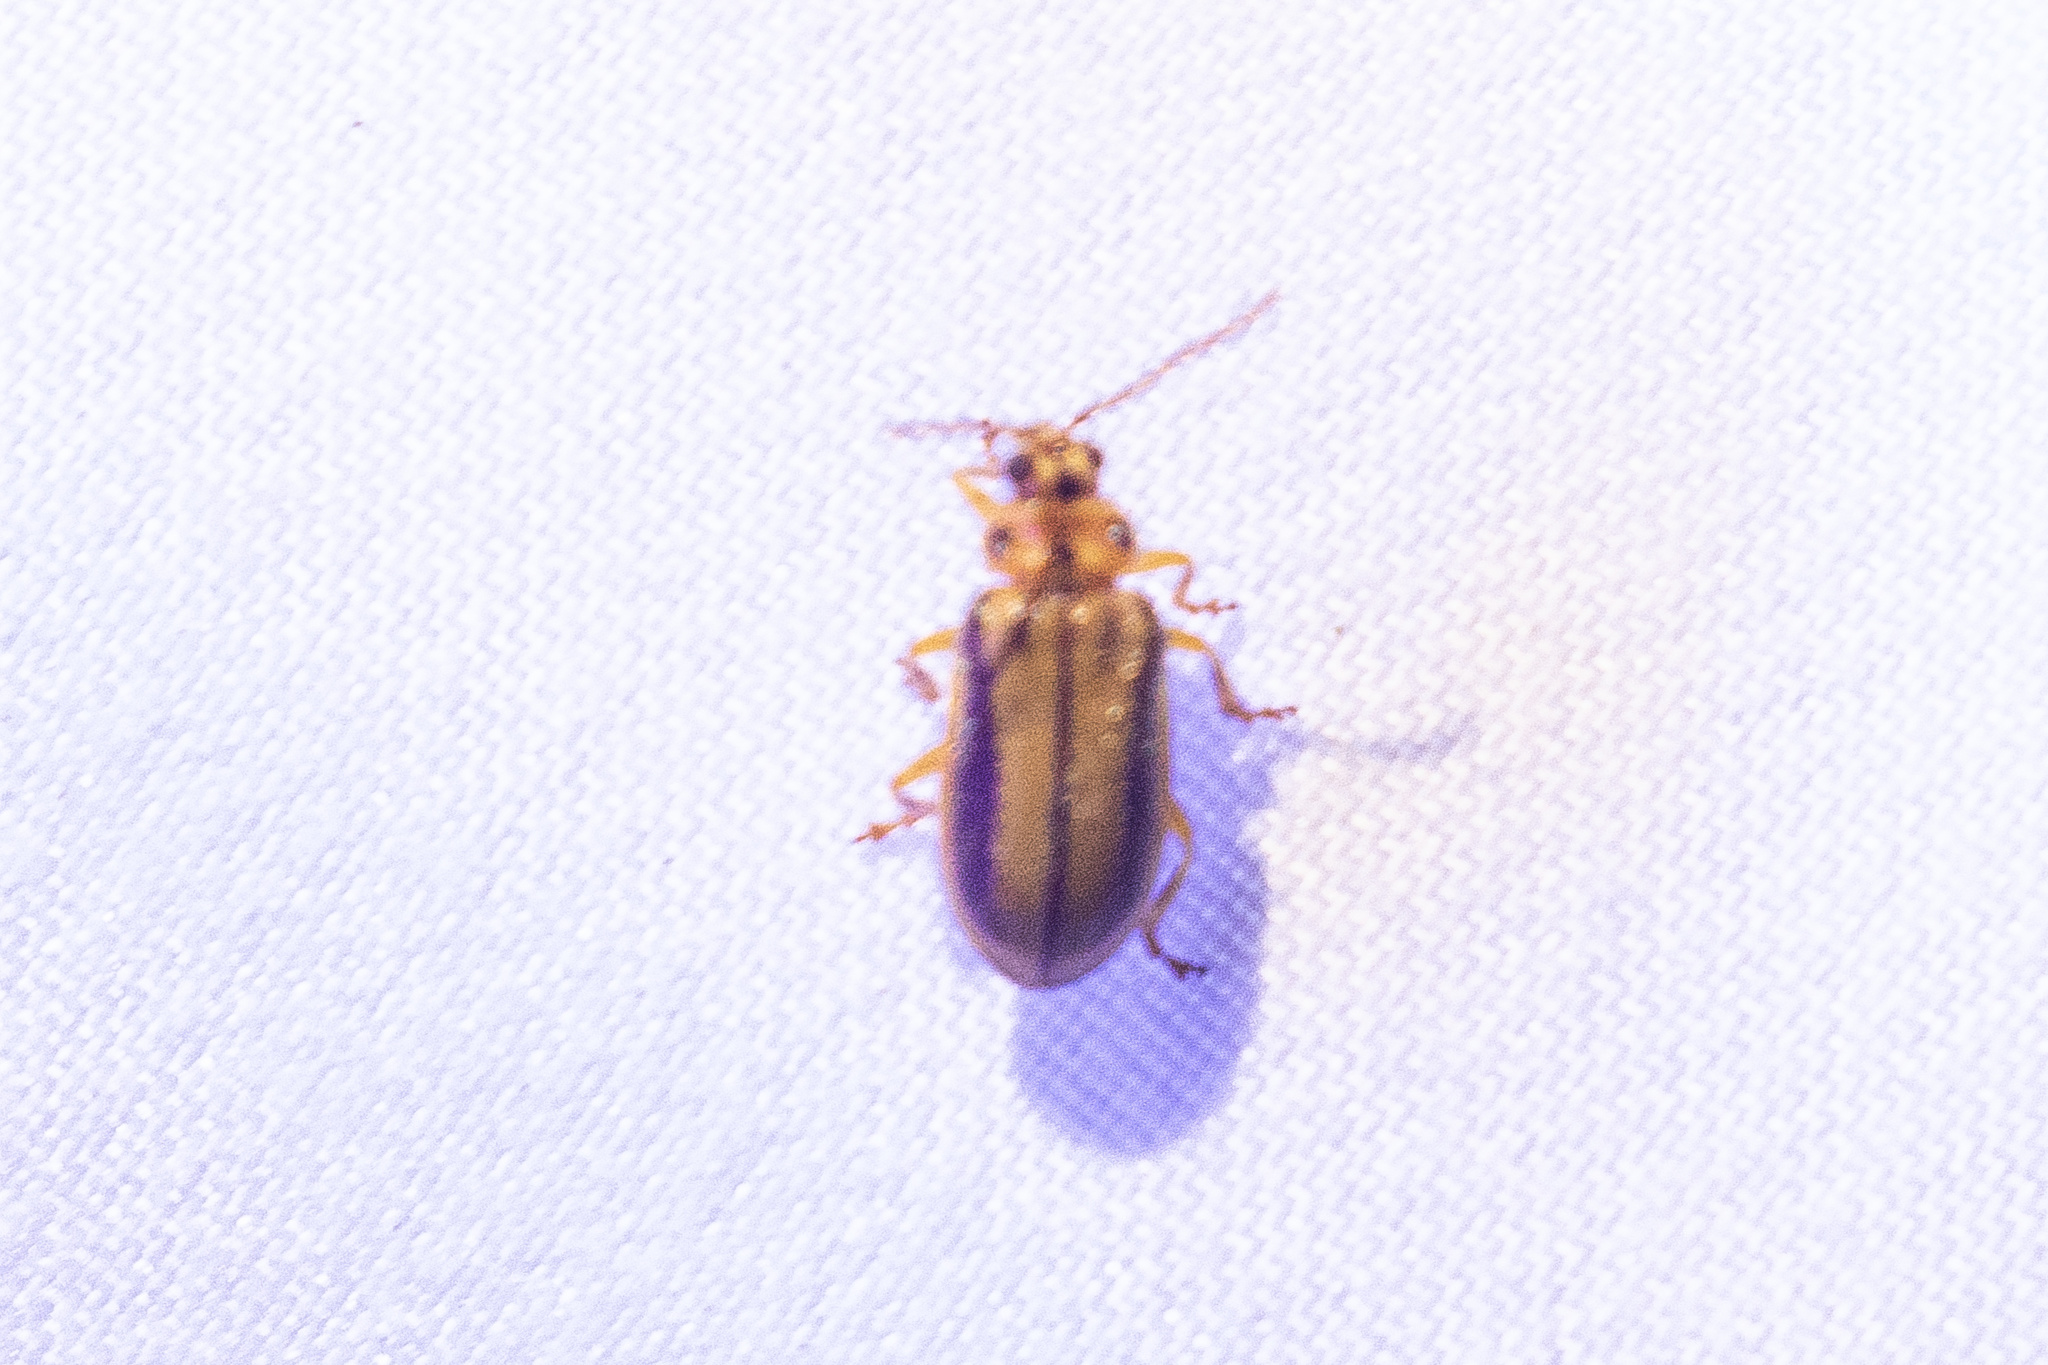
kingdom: Animalia
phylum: Arthropoda
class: Insecta
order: Coleoptera
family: Chrysomelidae
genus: Xanthogaleruca
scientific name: Xanthogaleruca luteola
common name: Elm leaf beetle
